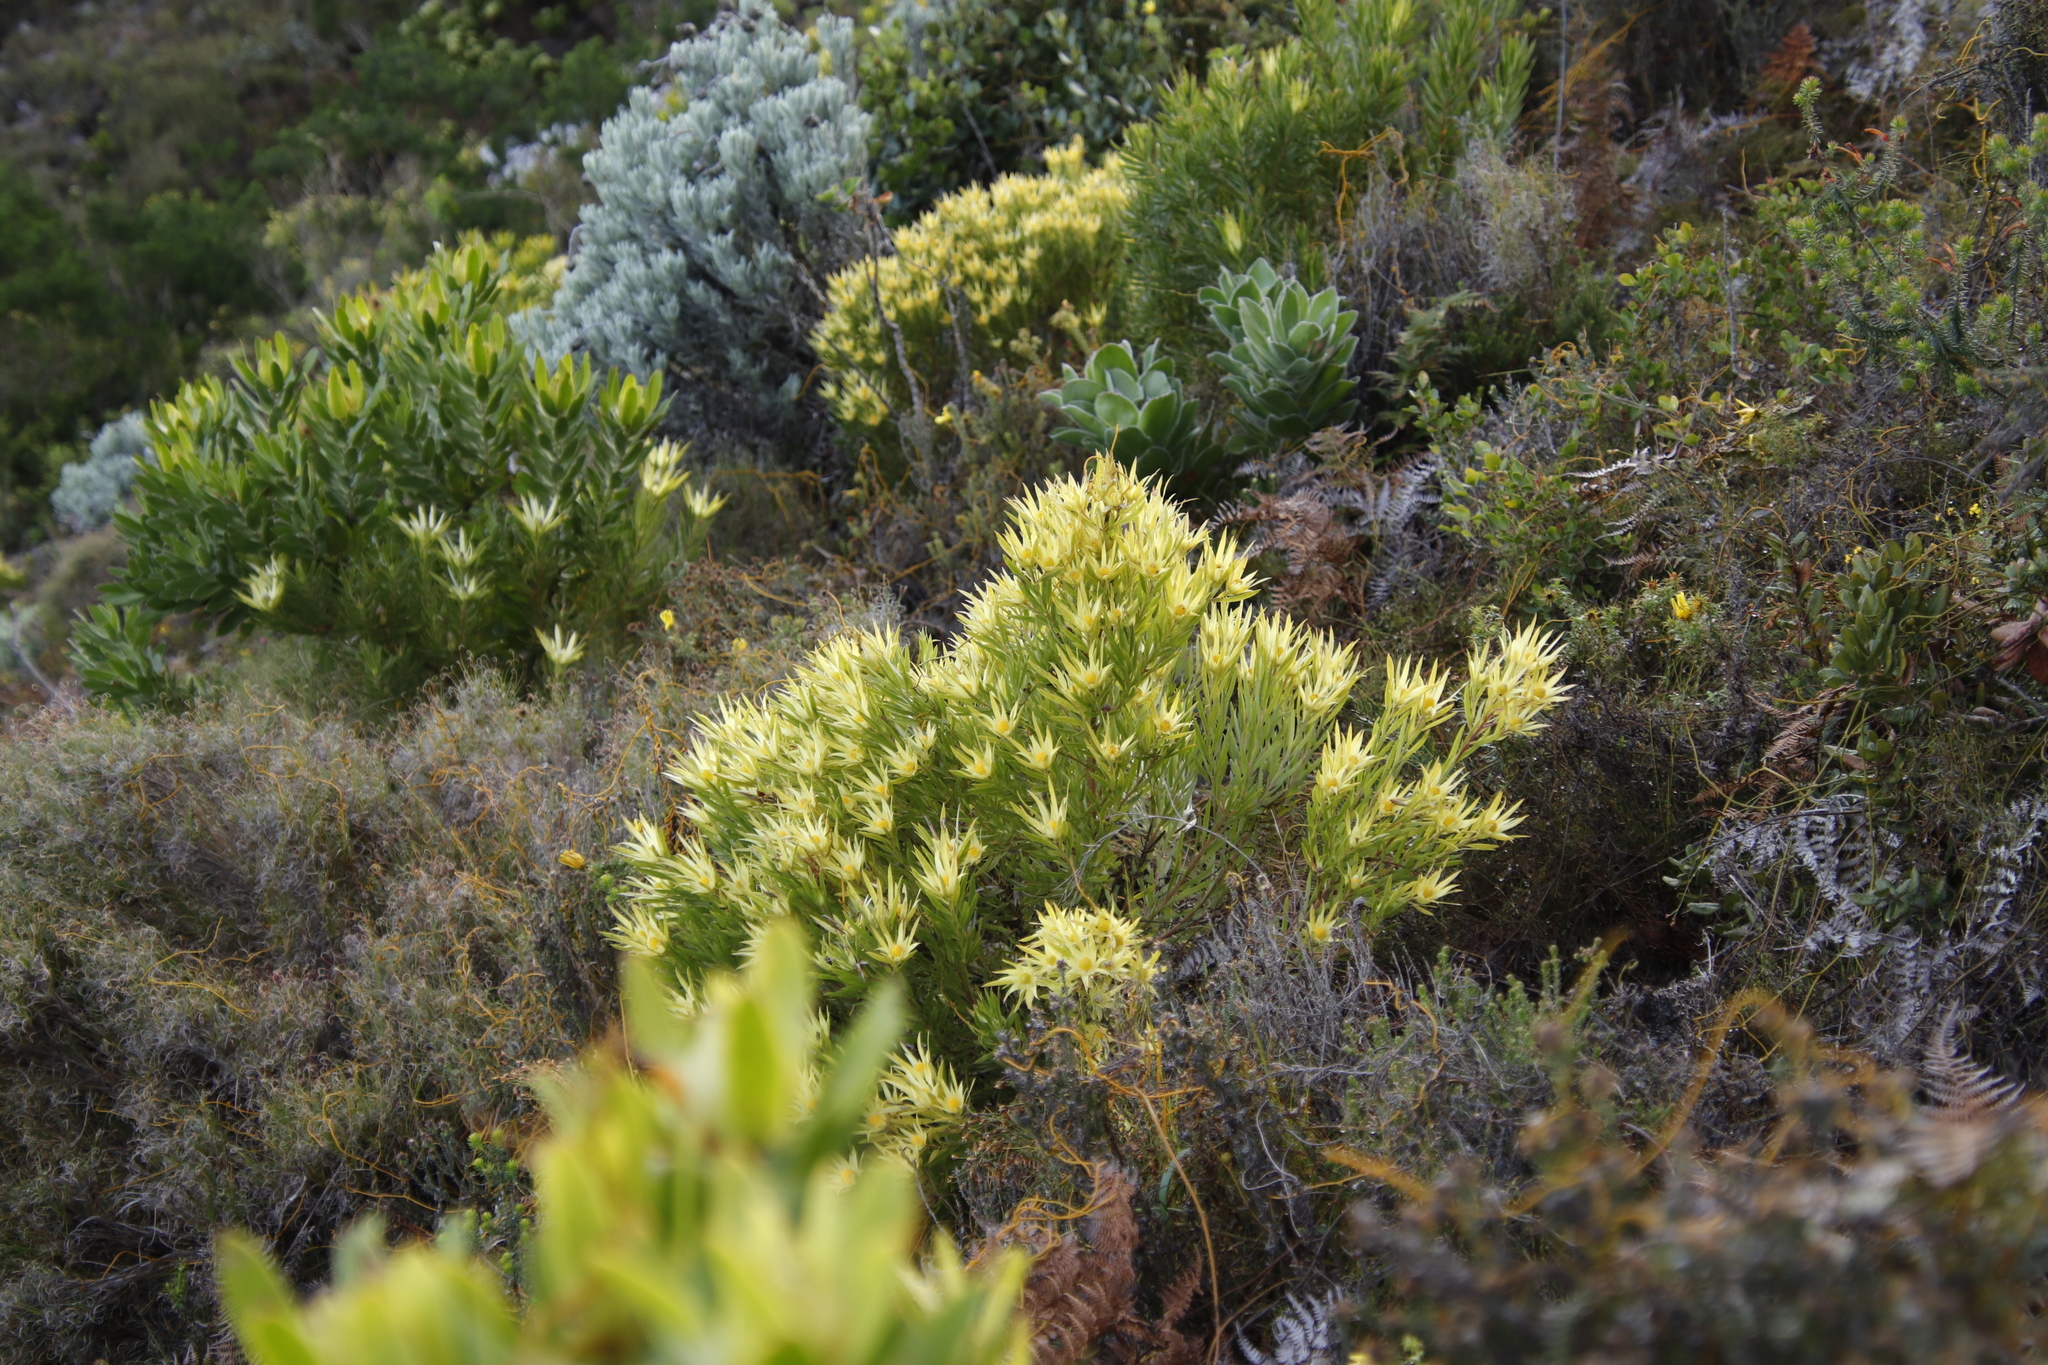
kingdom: Plantae
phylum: Tracheophyta
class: Magnoliopsida
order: Proteales
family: Proteaceae
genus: Leucadendron
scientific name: Leucadendron xanthoconus
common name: Sickle-leaf conebush
